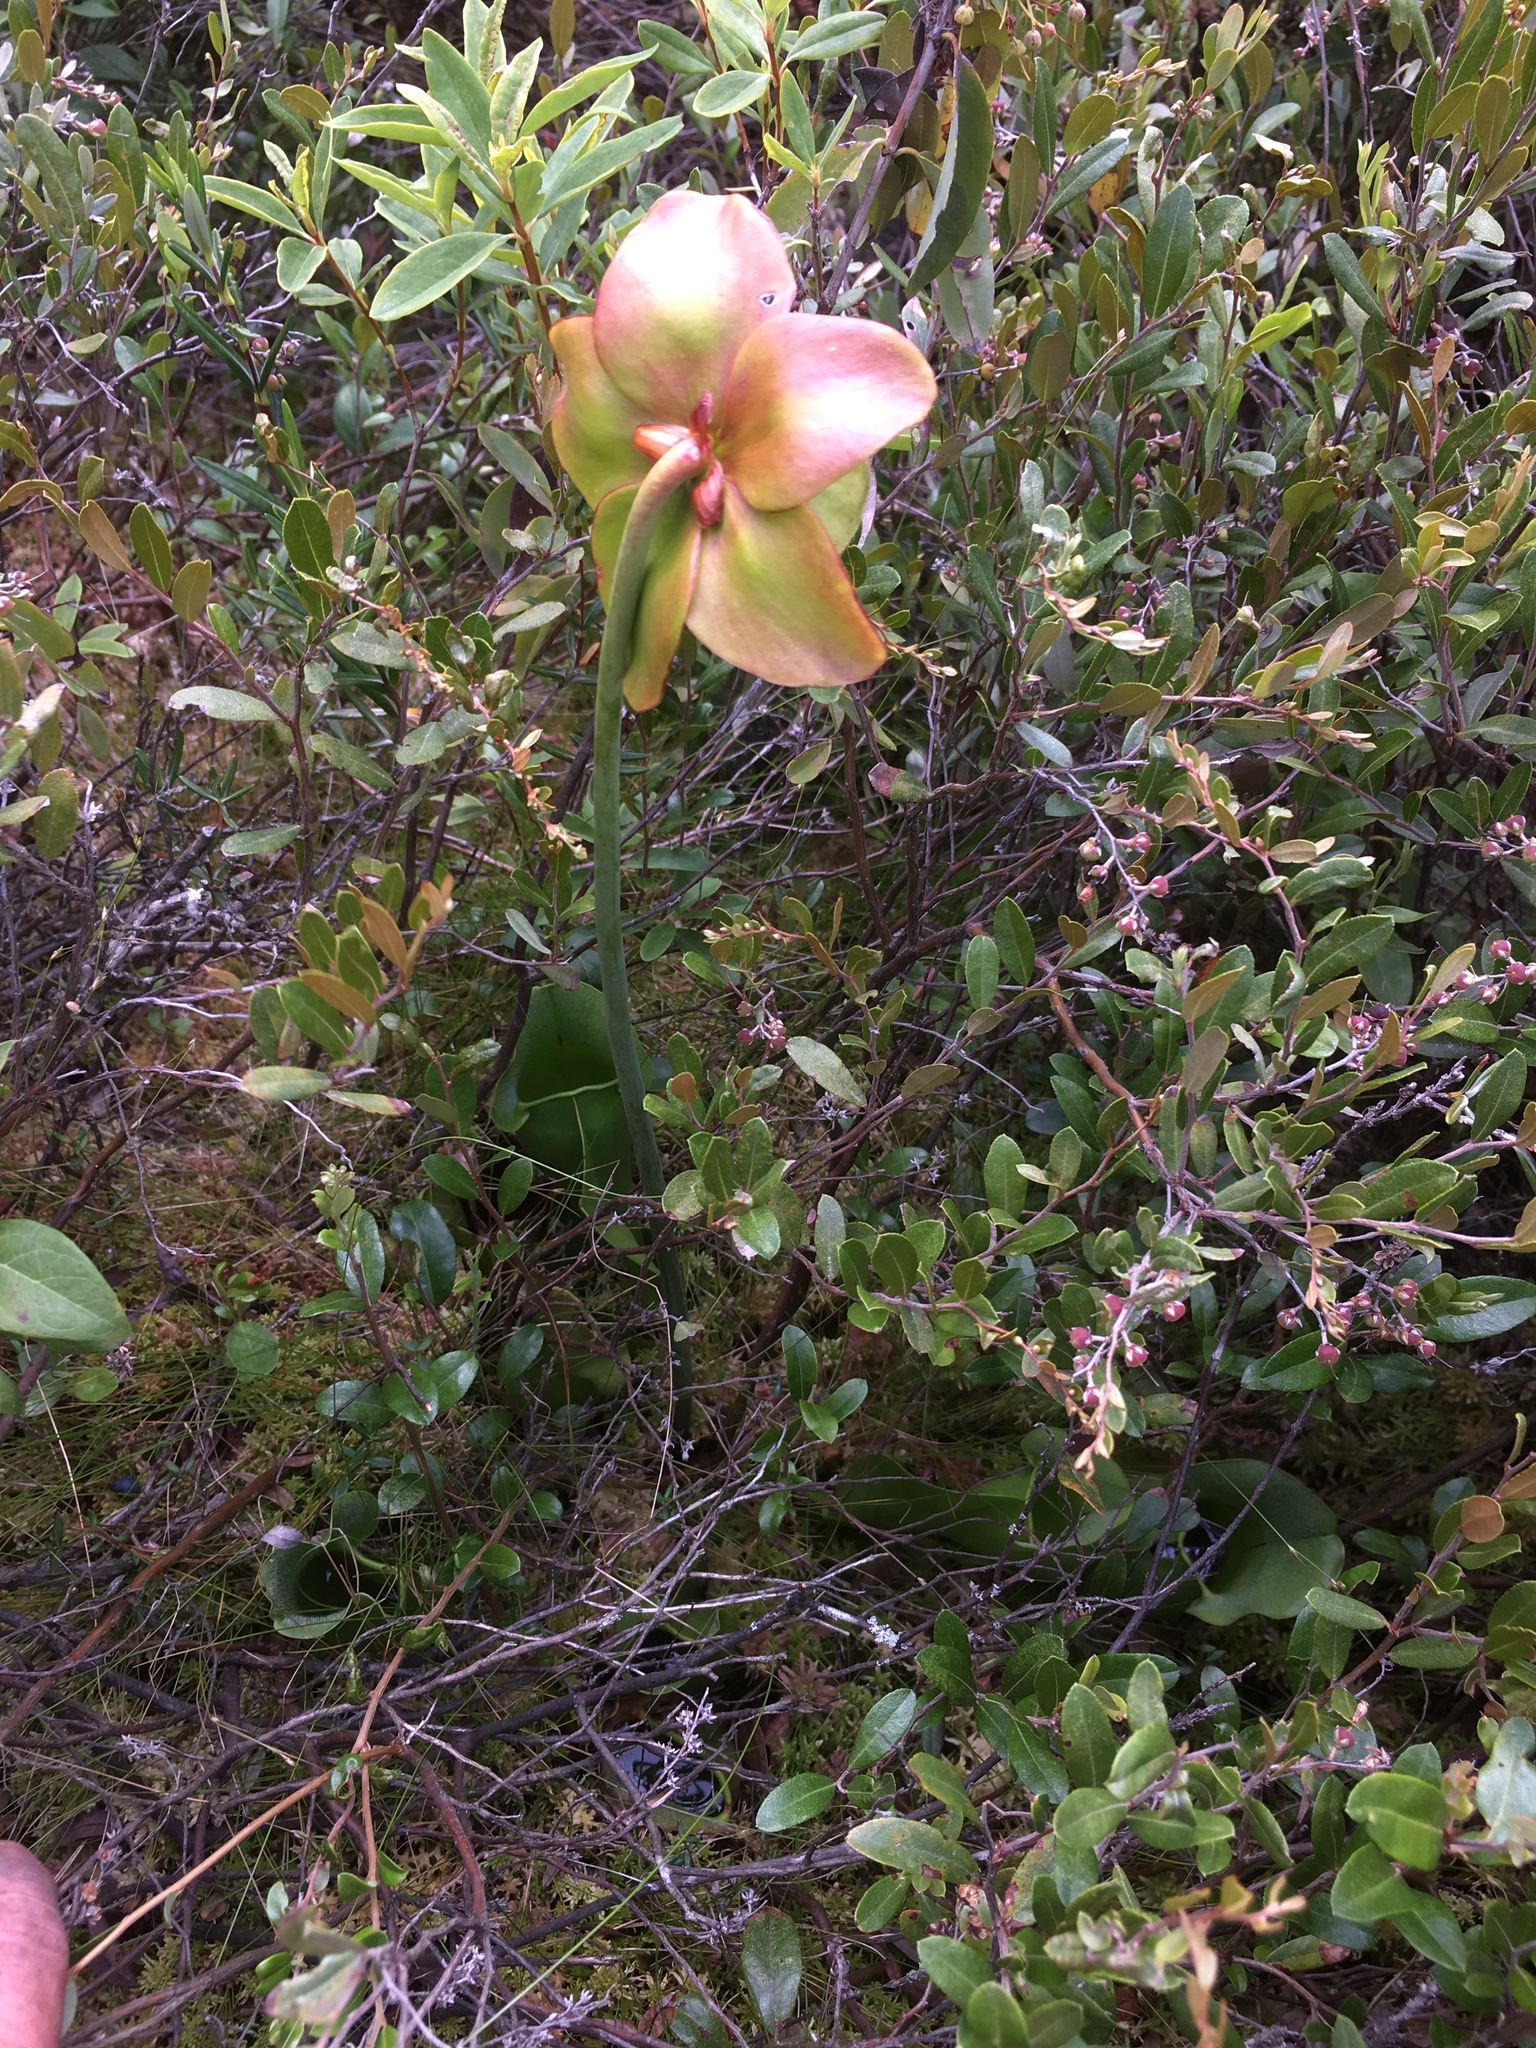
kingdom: Plantae
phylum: Tracheophyta
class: Magnoliopsida
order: Ericales
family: Sarraceniaceae
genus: Sarracenia
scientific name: Sarracenia purpurea
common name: Pitcherplant
